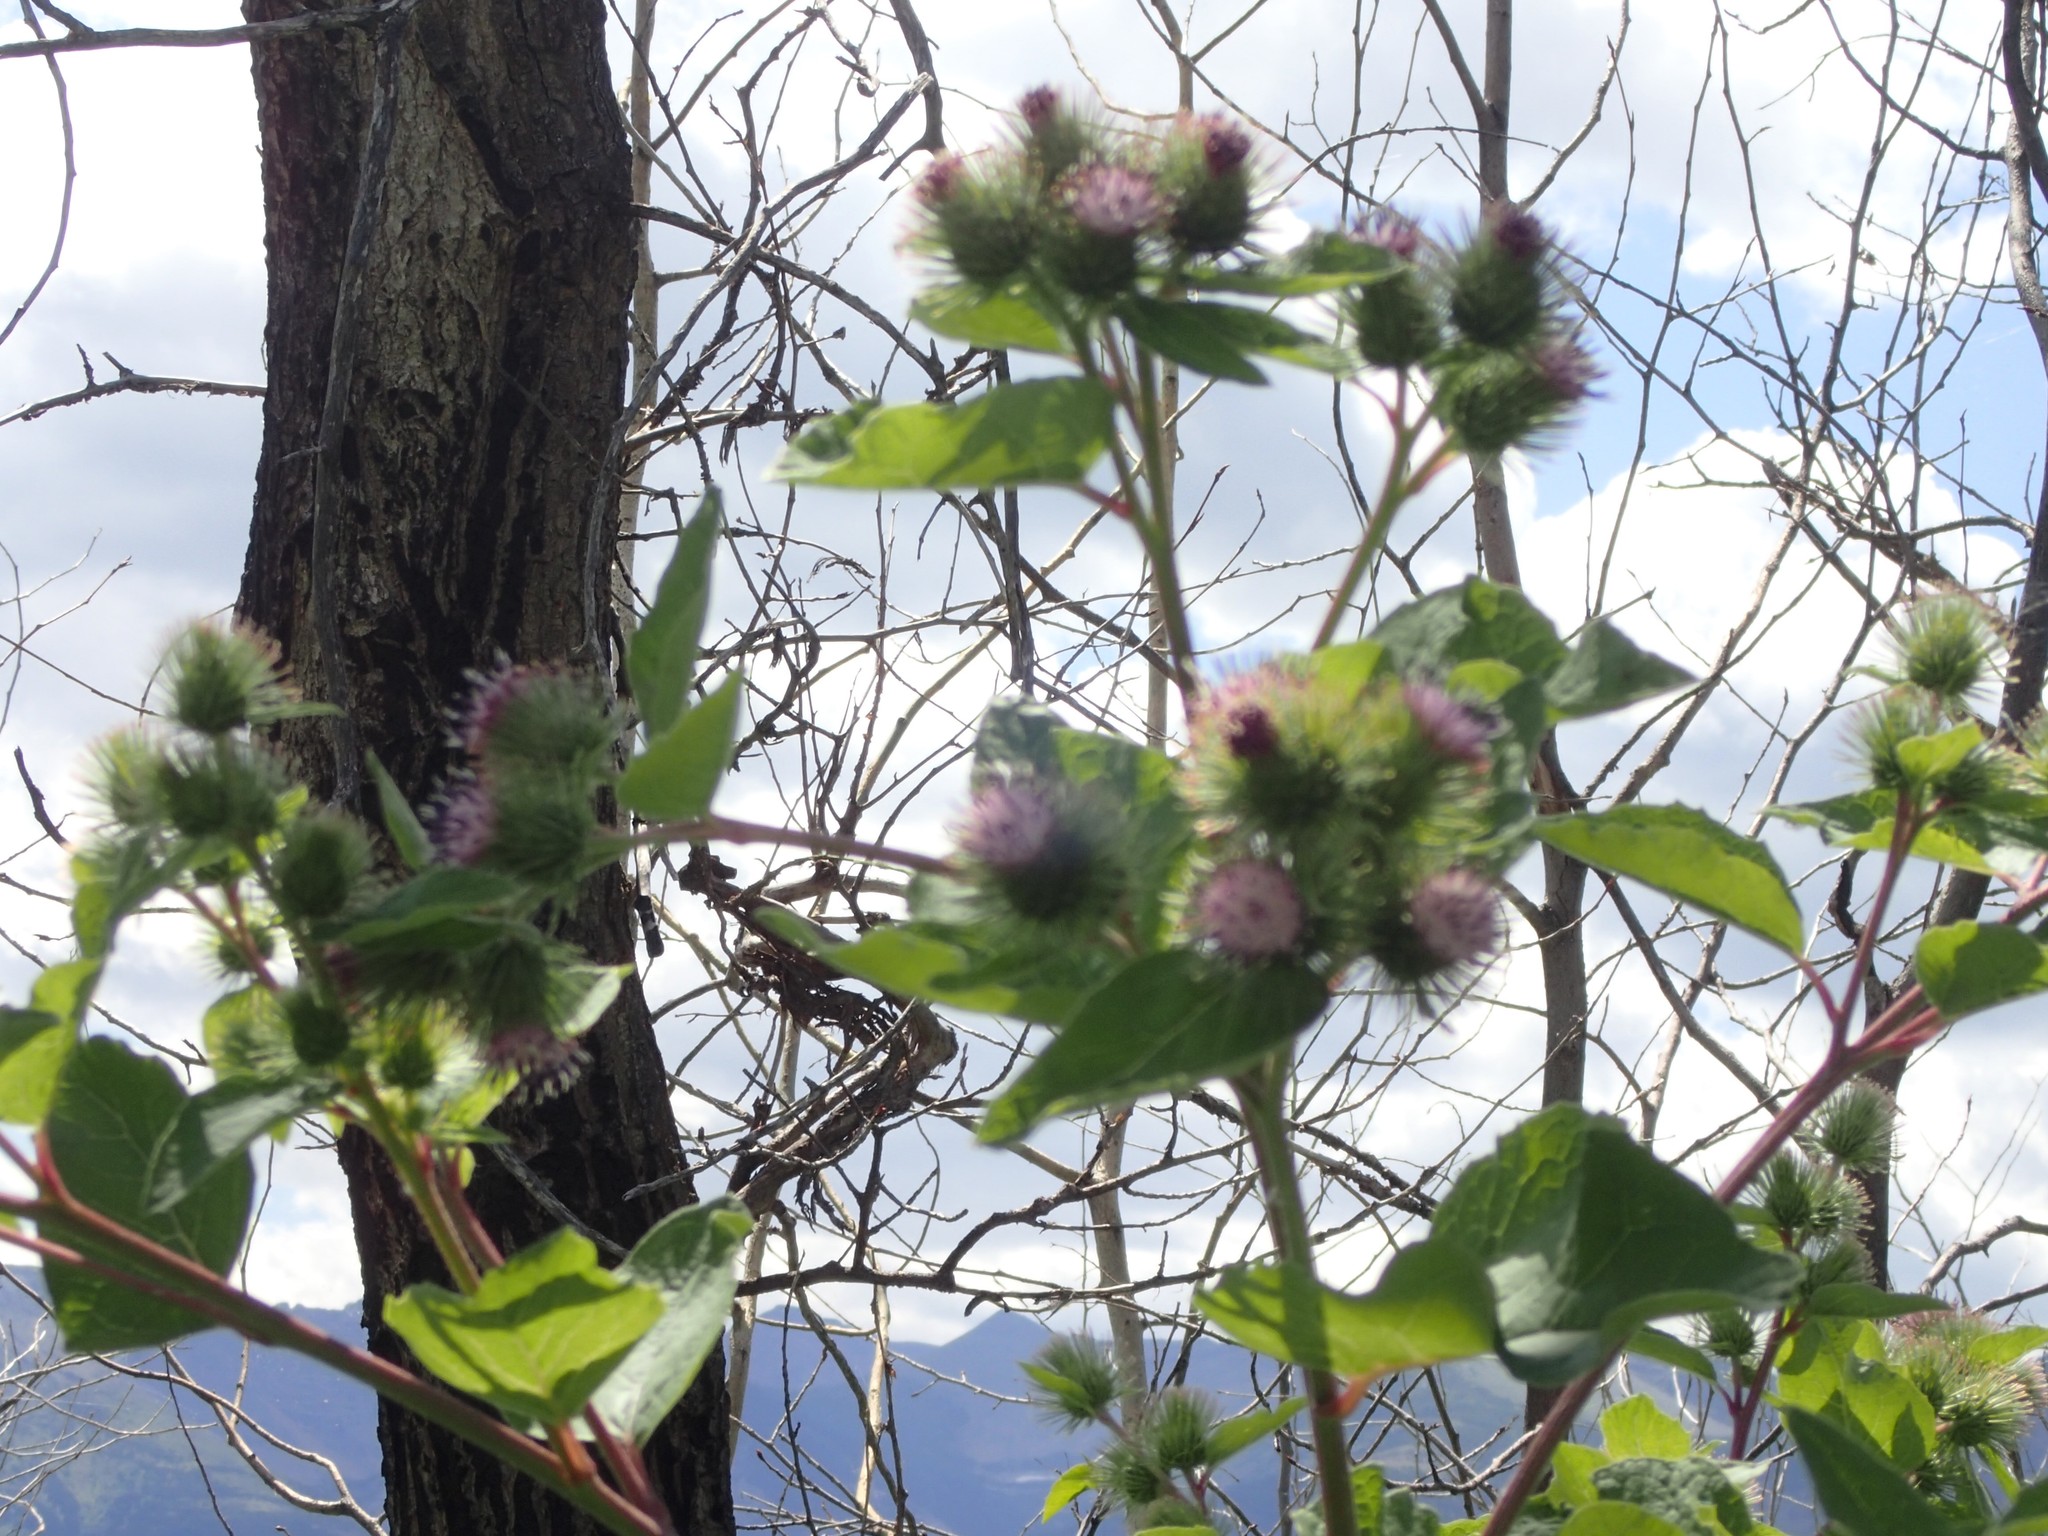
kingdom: Plantae
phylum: Tracheophyta
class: Magnoliopsida
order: Asterales
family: Asteraceae
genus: Arctium
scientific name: Arctium minus
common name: Lesser burdock
